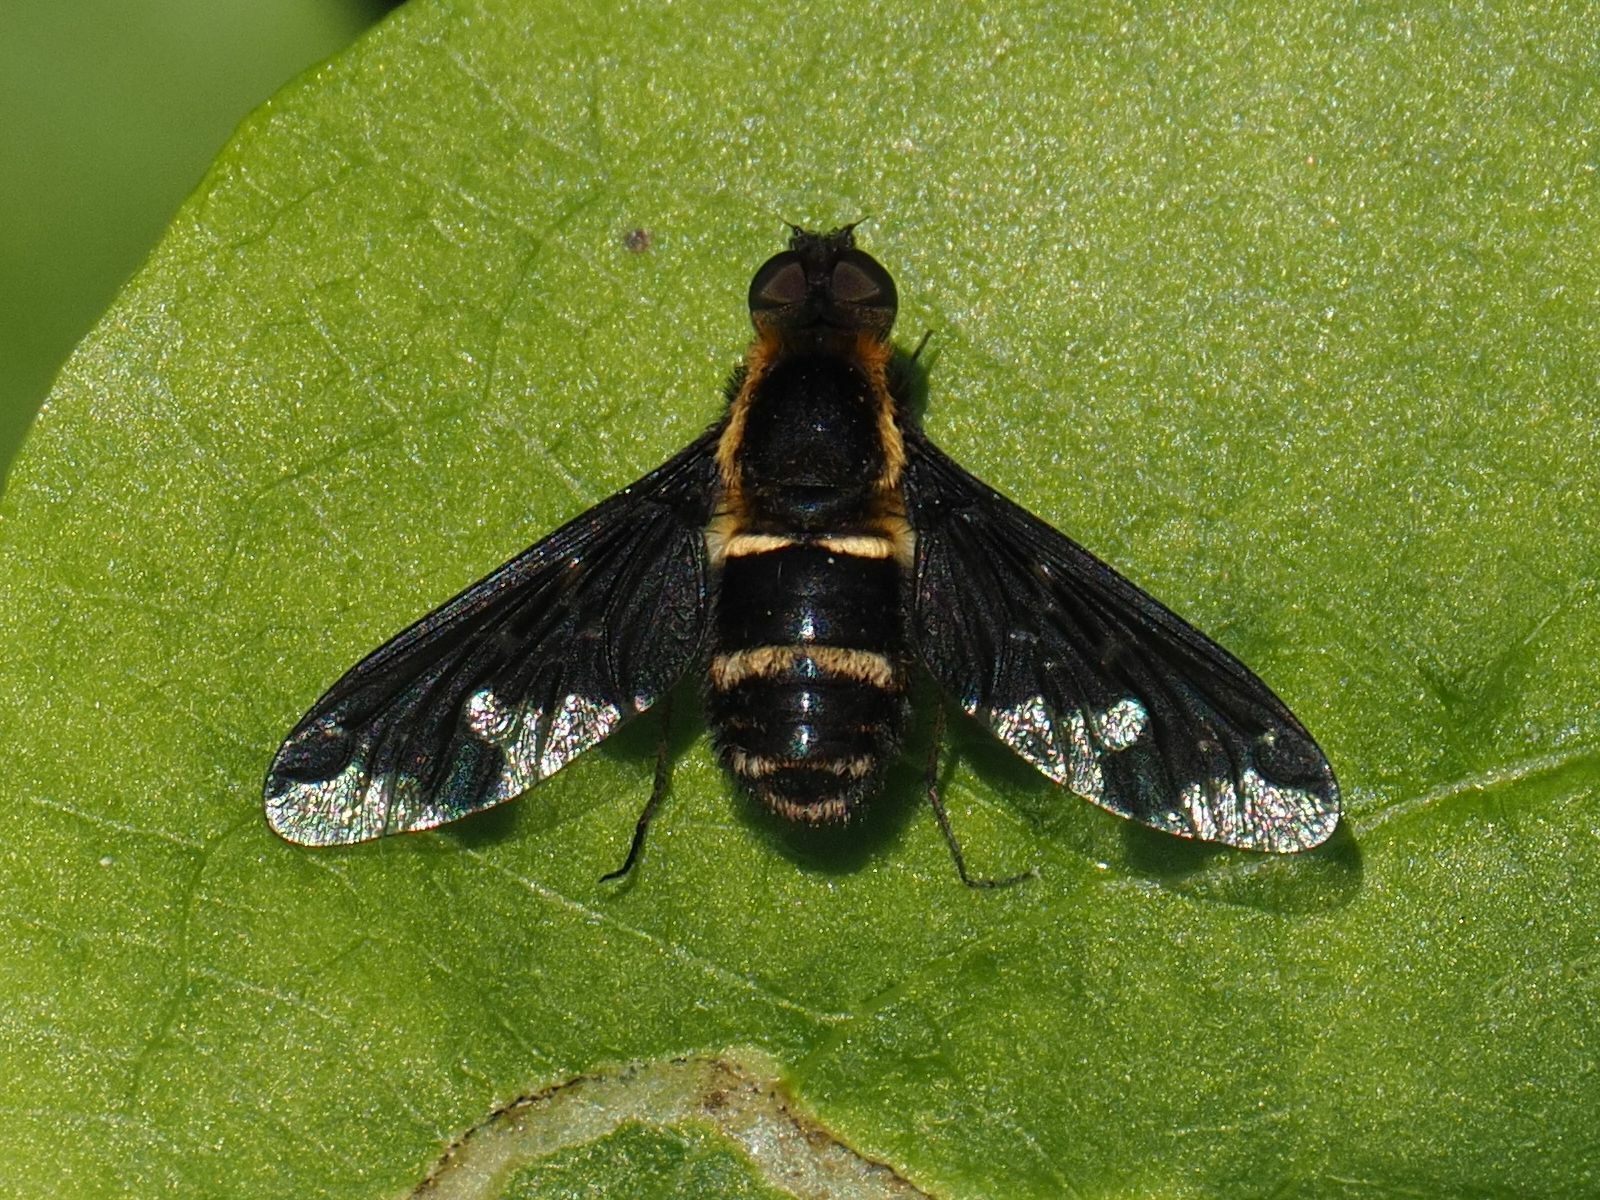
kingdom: Animalia
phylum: Arthropoda
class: Insecta
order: Diptera
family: Bombyliidae
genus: Hemipenthes
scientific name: Hemipenthes maura
